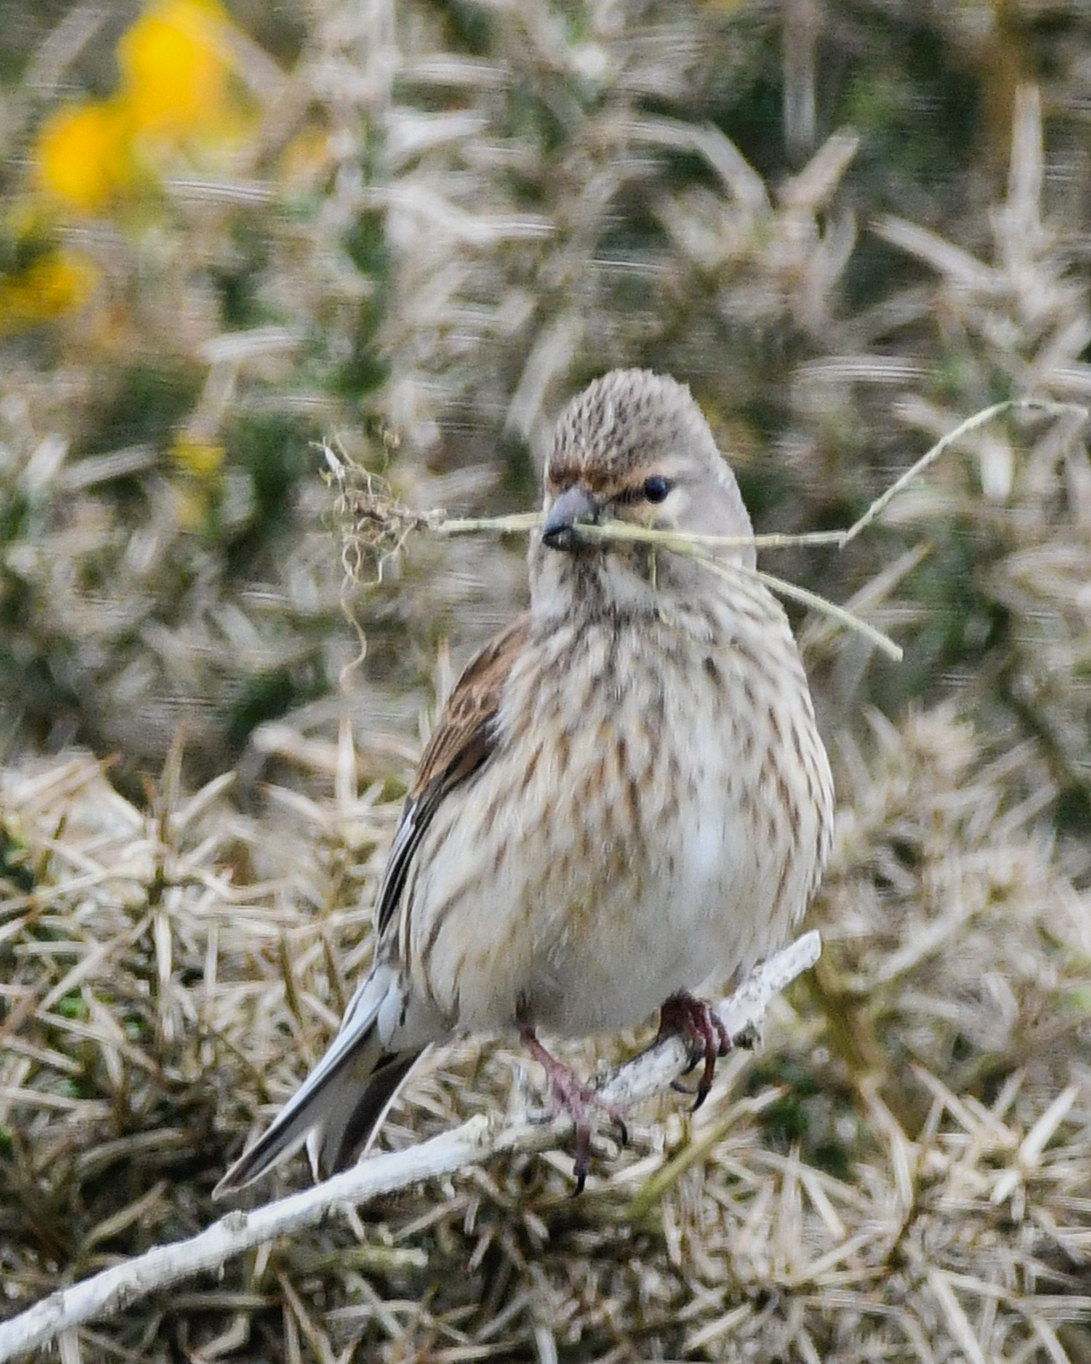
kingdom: Animalia
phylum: Chordata
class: Aves
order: Passeriformes
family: Fringillidae
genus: Linaria
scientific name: Linaria cannabina
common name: Common linnet
